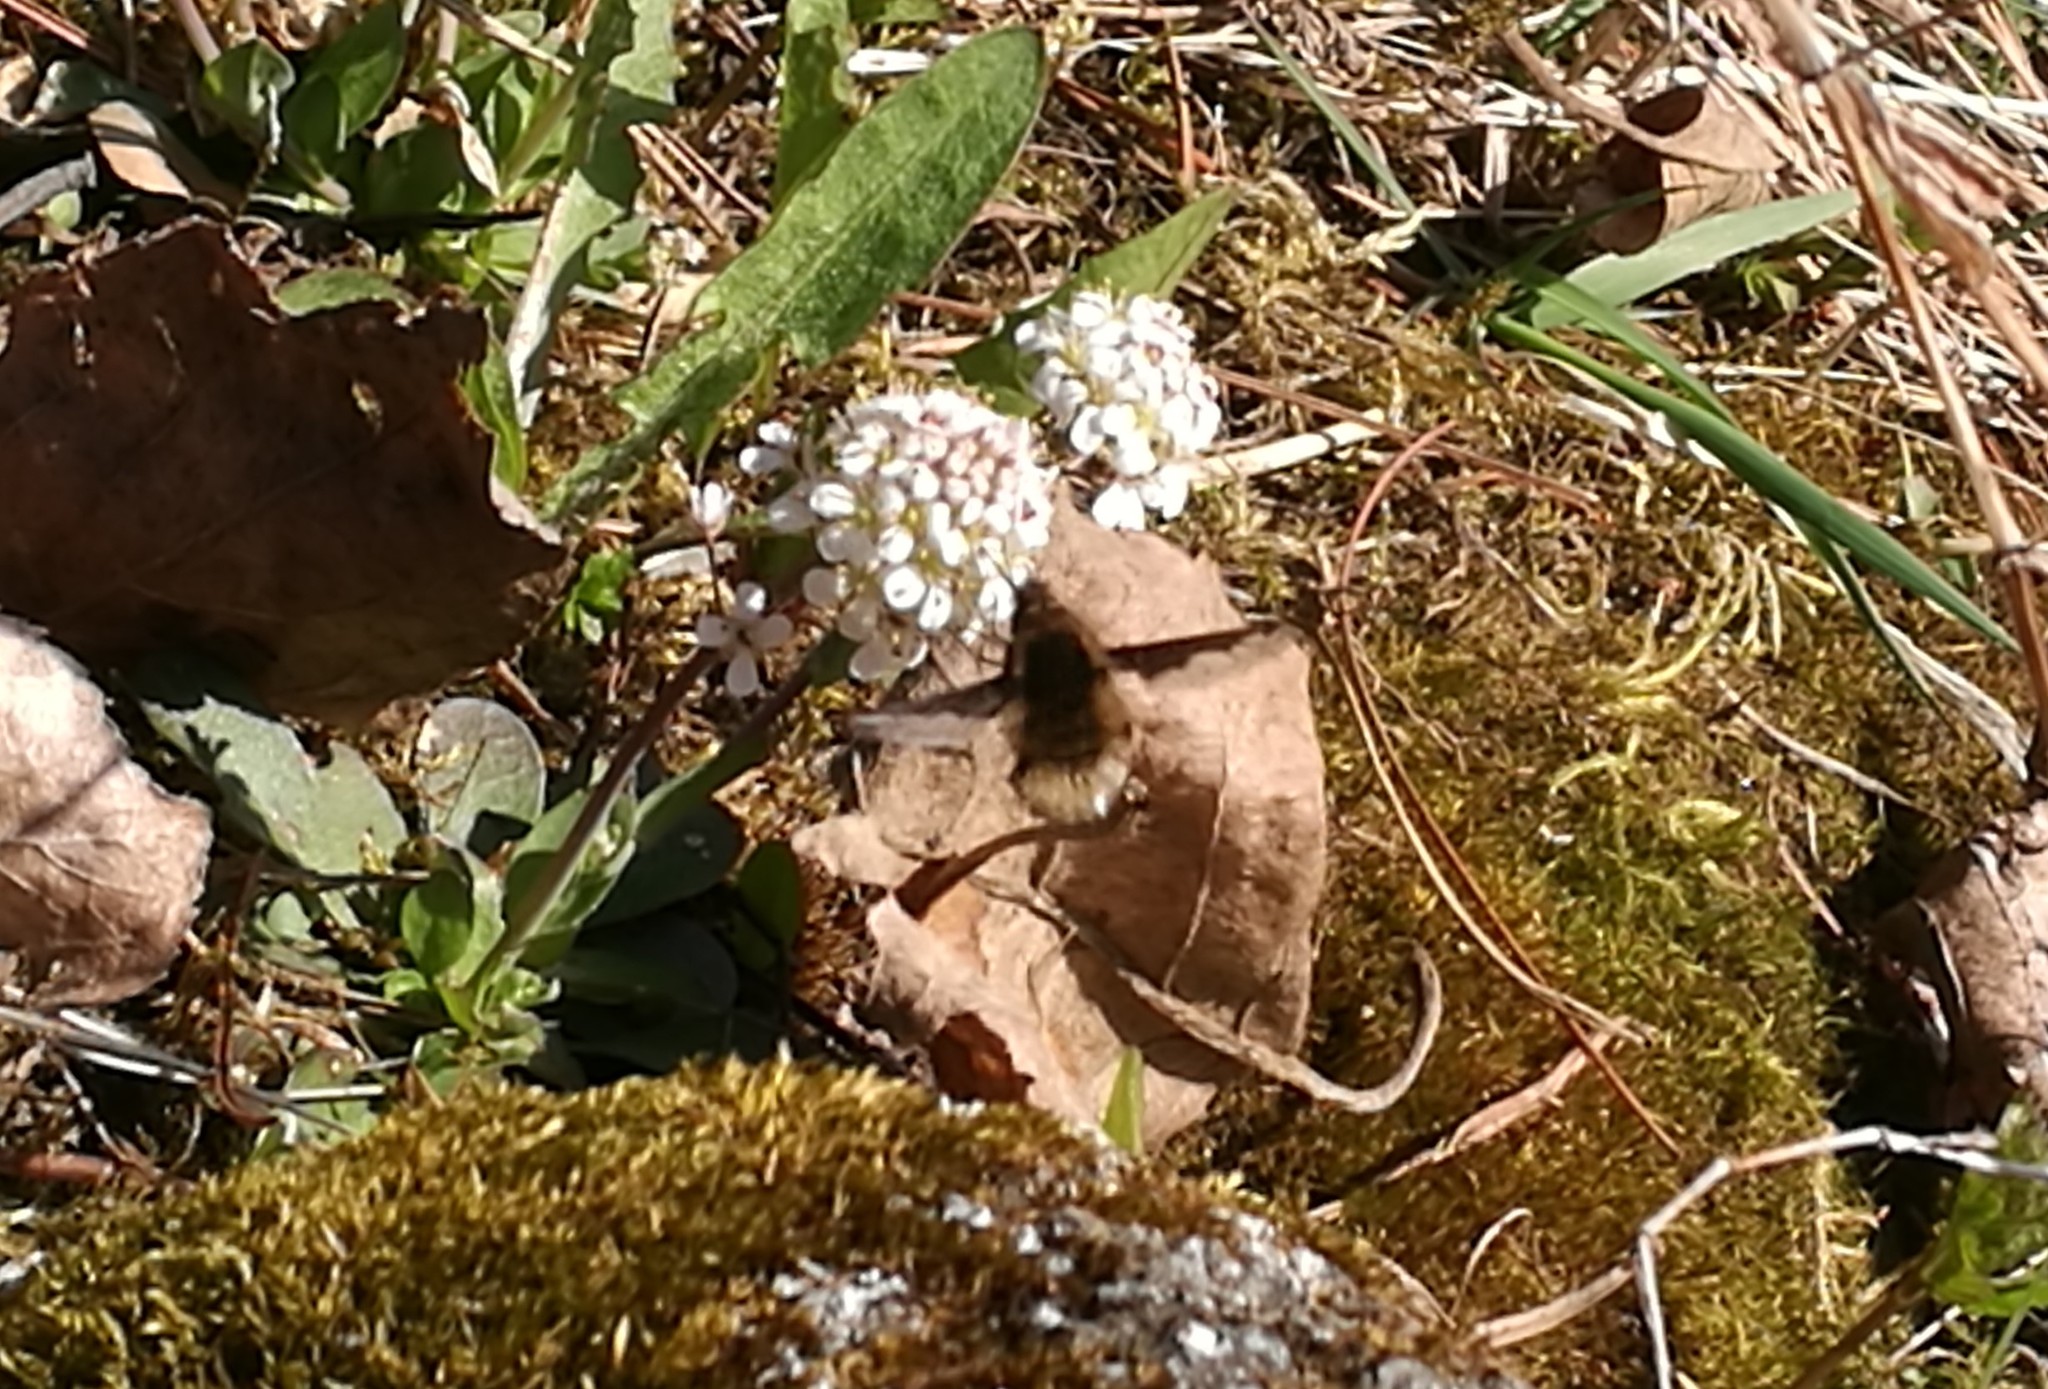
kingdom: Animalia
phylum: Arthropoda
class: Insecta
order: Diptera
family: Bombyliidae
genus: Bombylius
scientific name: Bombylius major
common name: Bee fly
